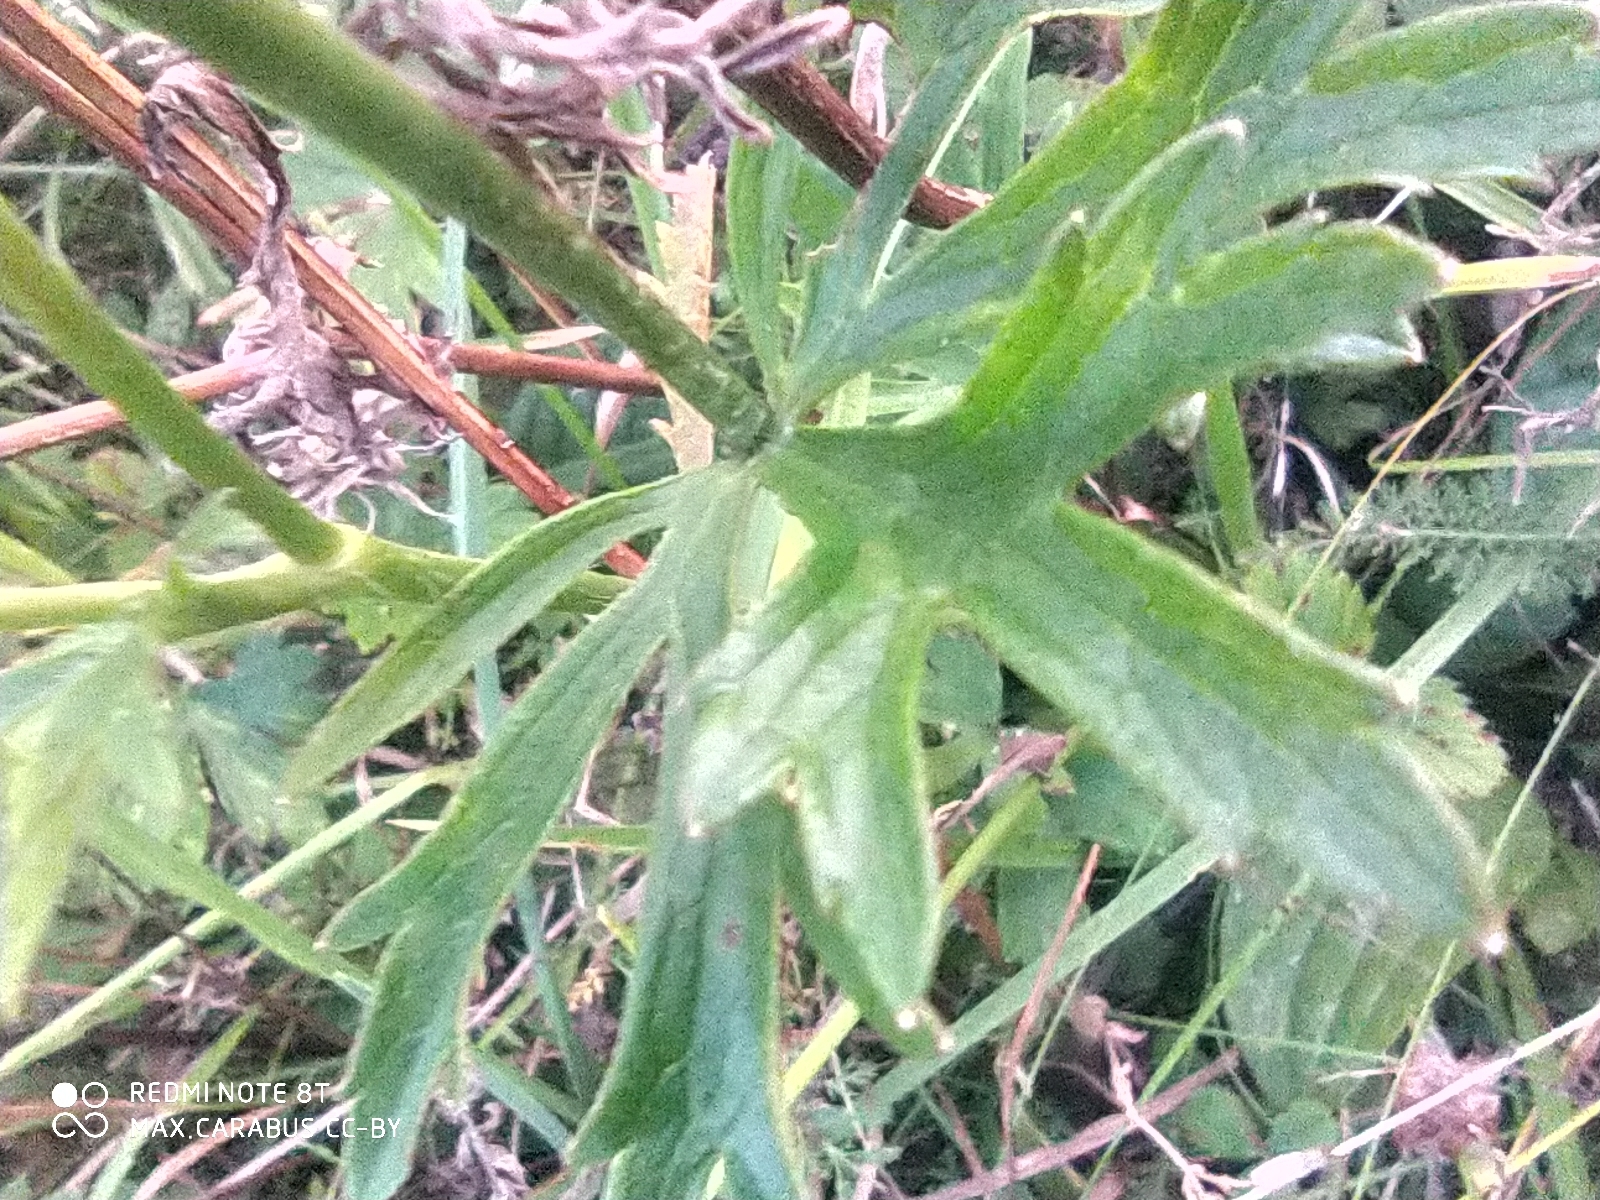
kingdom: Plantae
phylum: Tracheophyta
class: Magnoliopsida
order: Ranunculales
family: Ranunculaceae
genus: Ranunculus
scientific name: Ranunculus polyanthemos
